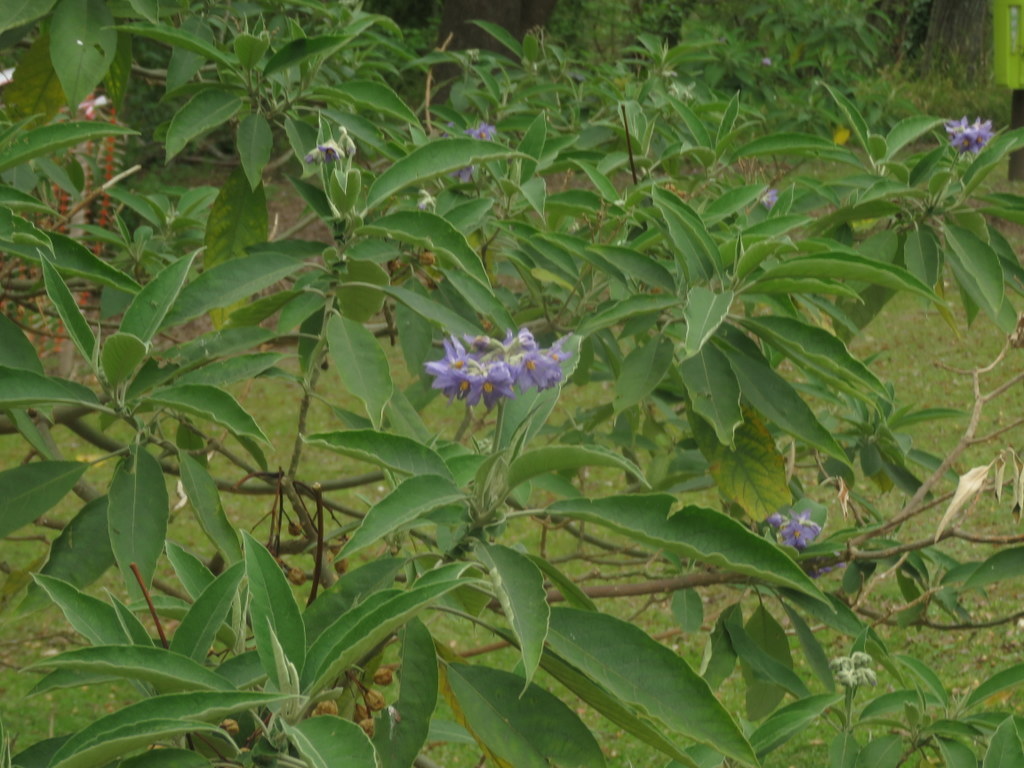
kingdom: Plantae
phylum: Tracheophyta
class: Magnoliopsida
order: Solanales
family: Solanaceae
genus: Solanum
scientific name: Solanum granulosoleprosum
